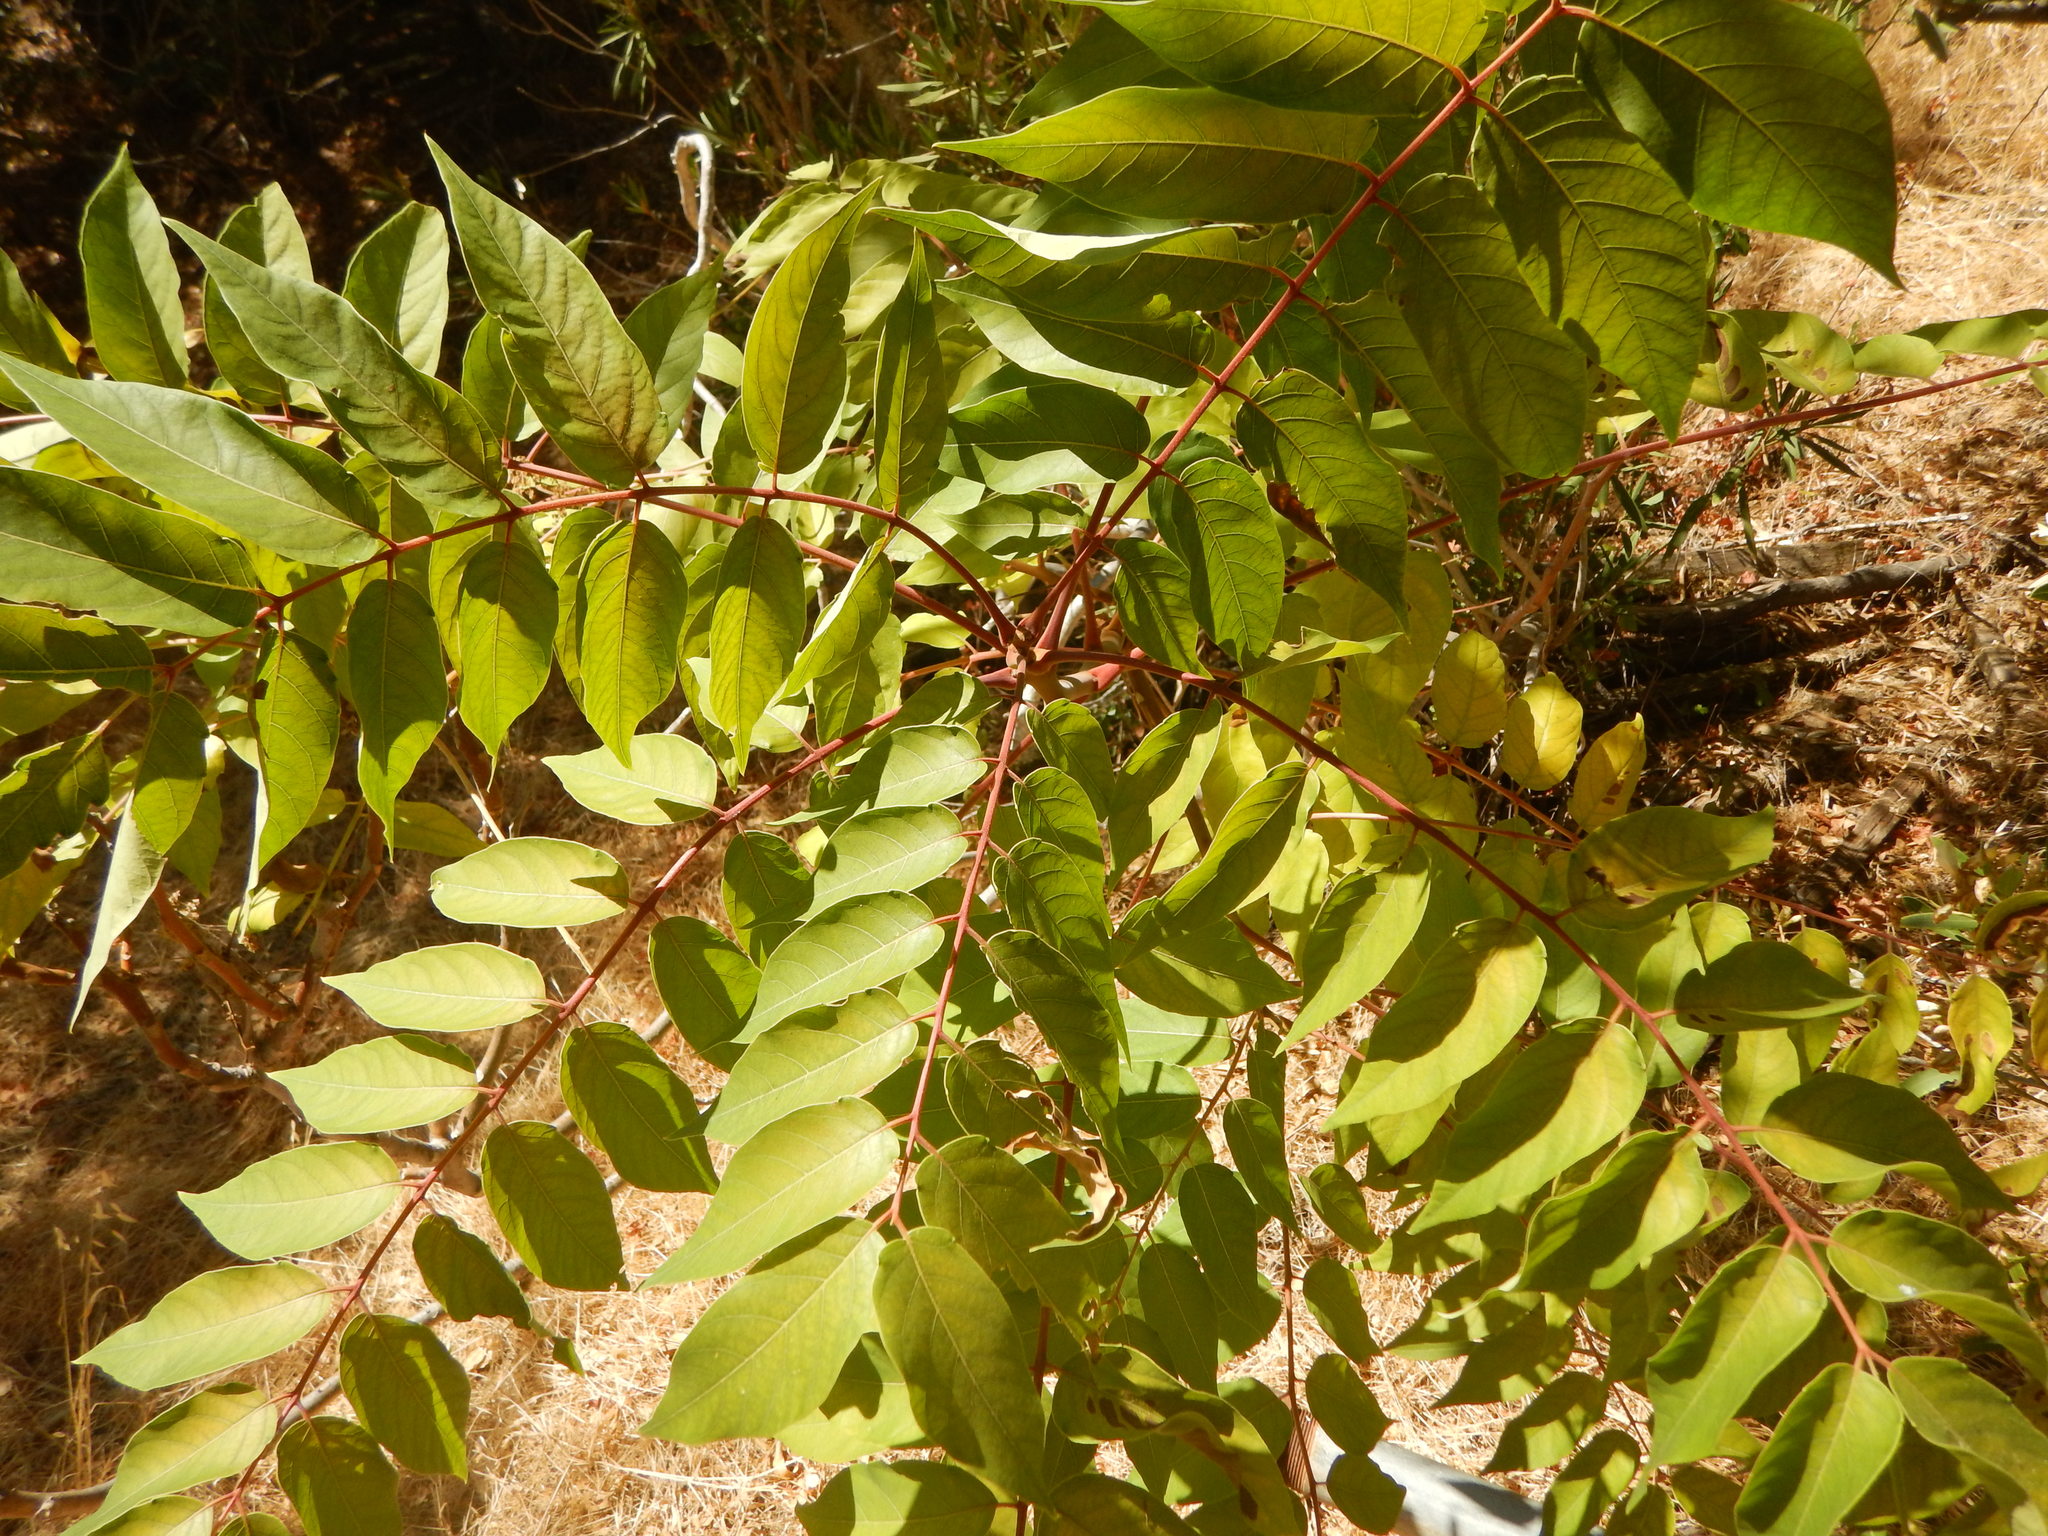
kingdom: Plantae
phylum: Tracheophyta
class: Magnoliopsida
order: Sapindales
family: Simaroubaceae
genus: Ailanthus
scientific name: Ailanthus altissima
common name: Tree-of-heaven
